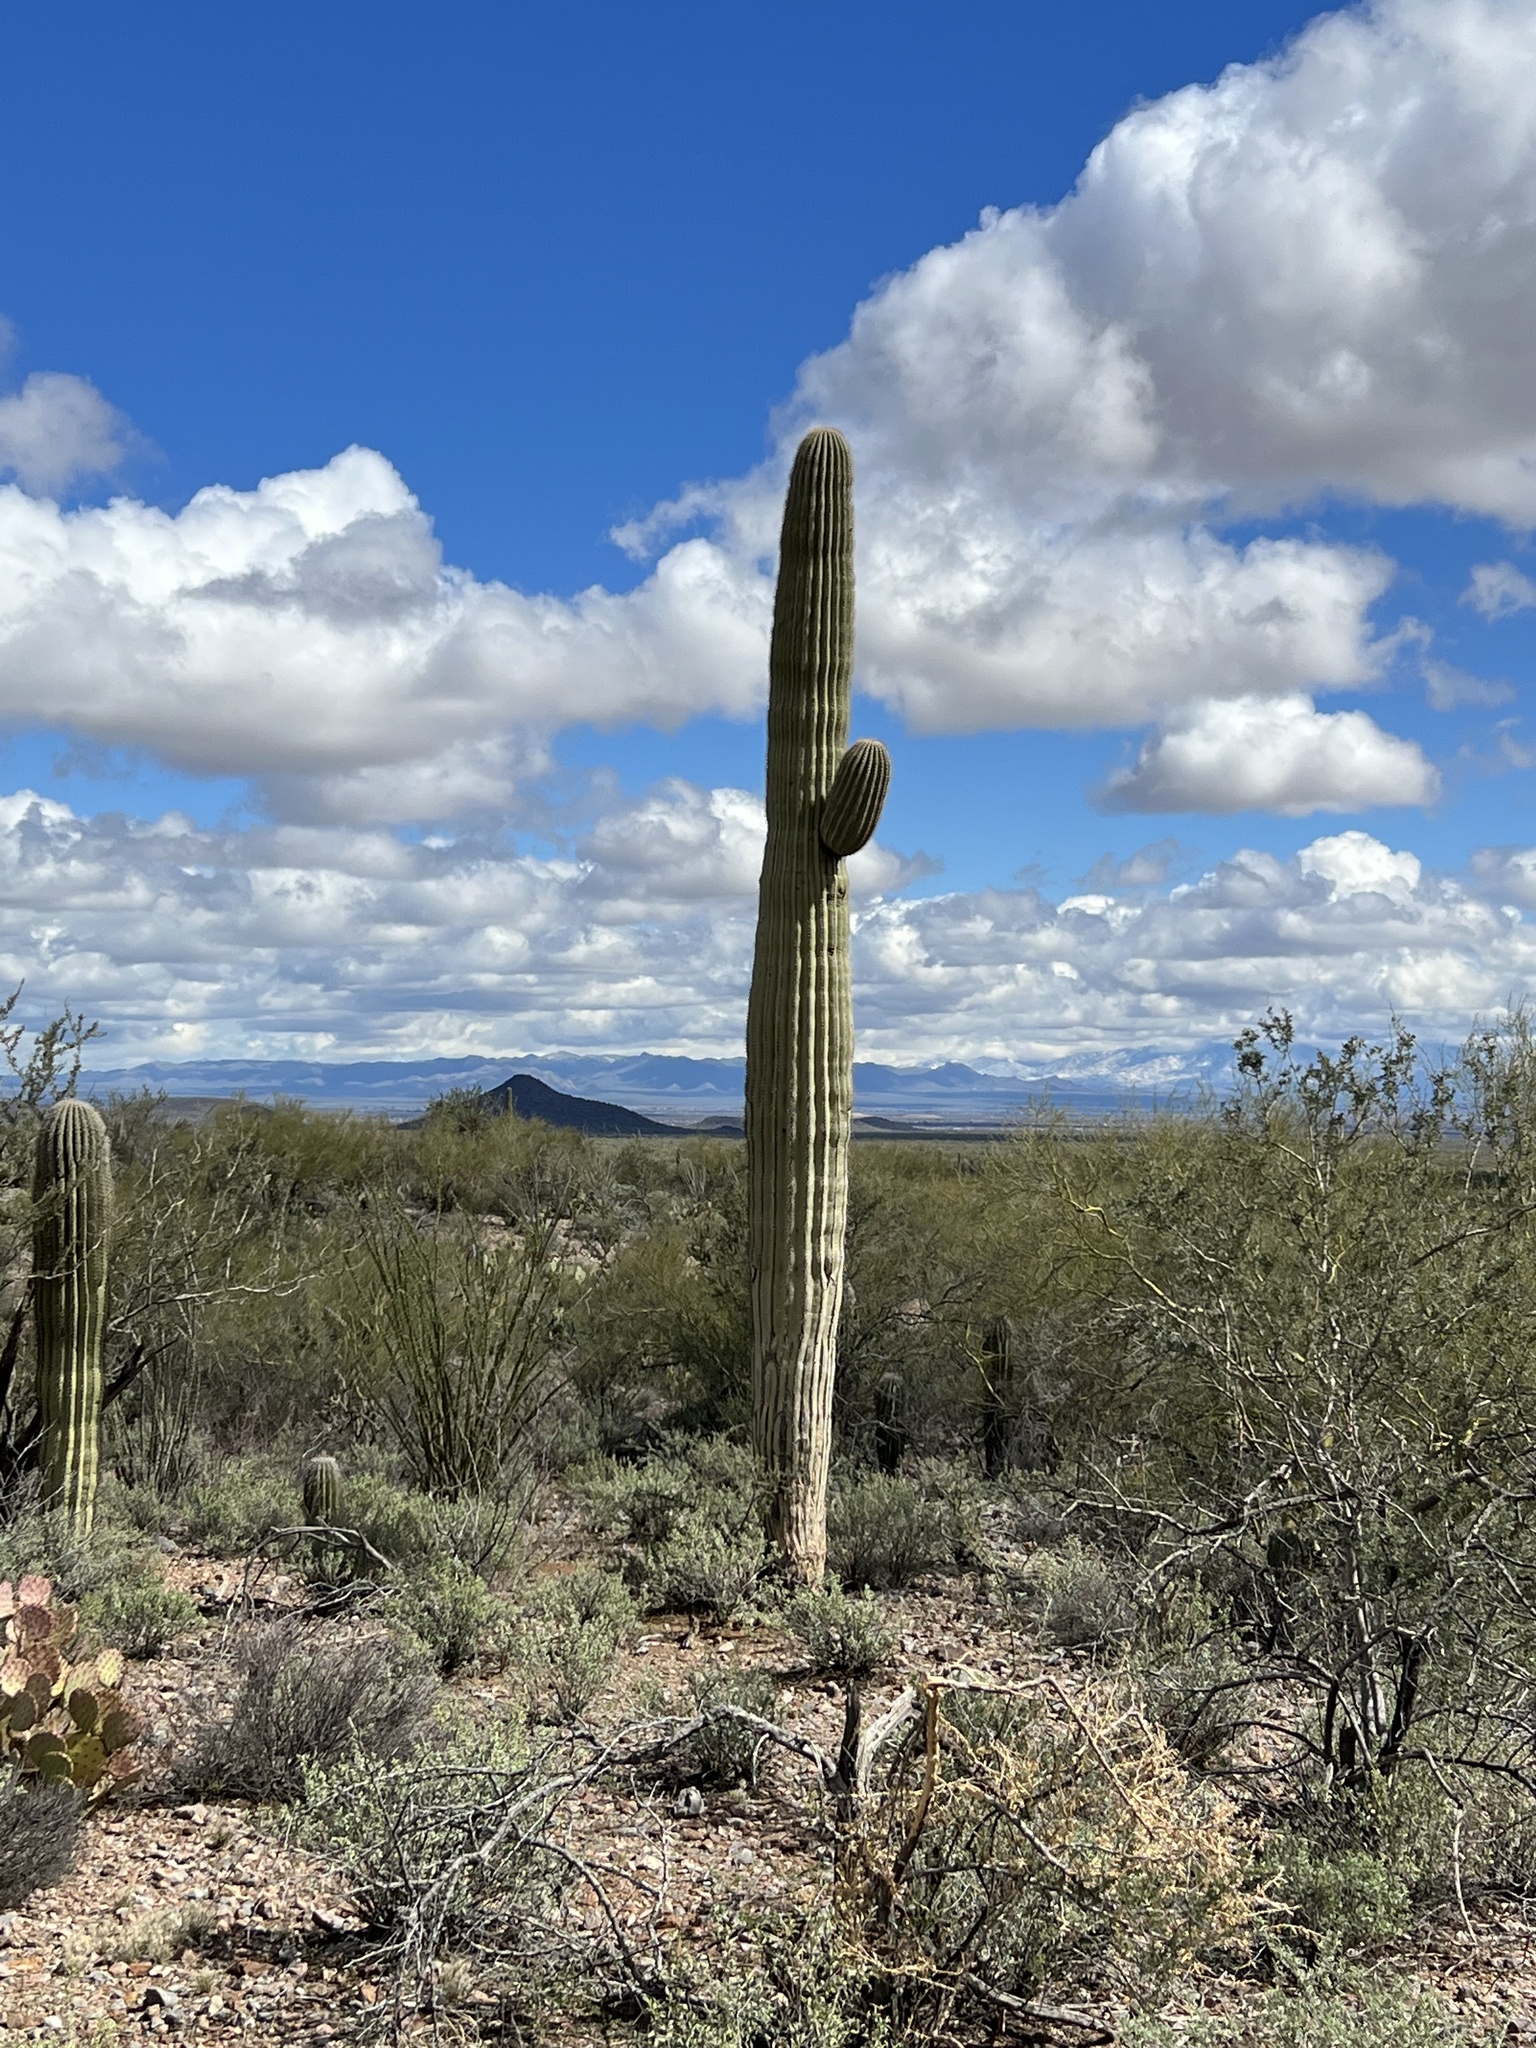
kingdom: Plantae
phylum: Tracheophyta
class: Magnoliopsida
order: Caryophyllales
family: Cactaceae
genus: Carnegiea
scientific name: Carnegiea gigantea
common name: Saguaro
